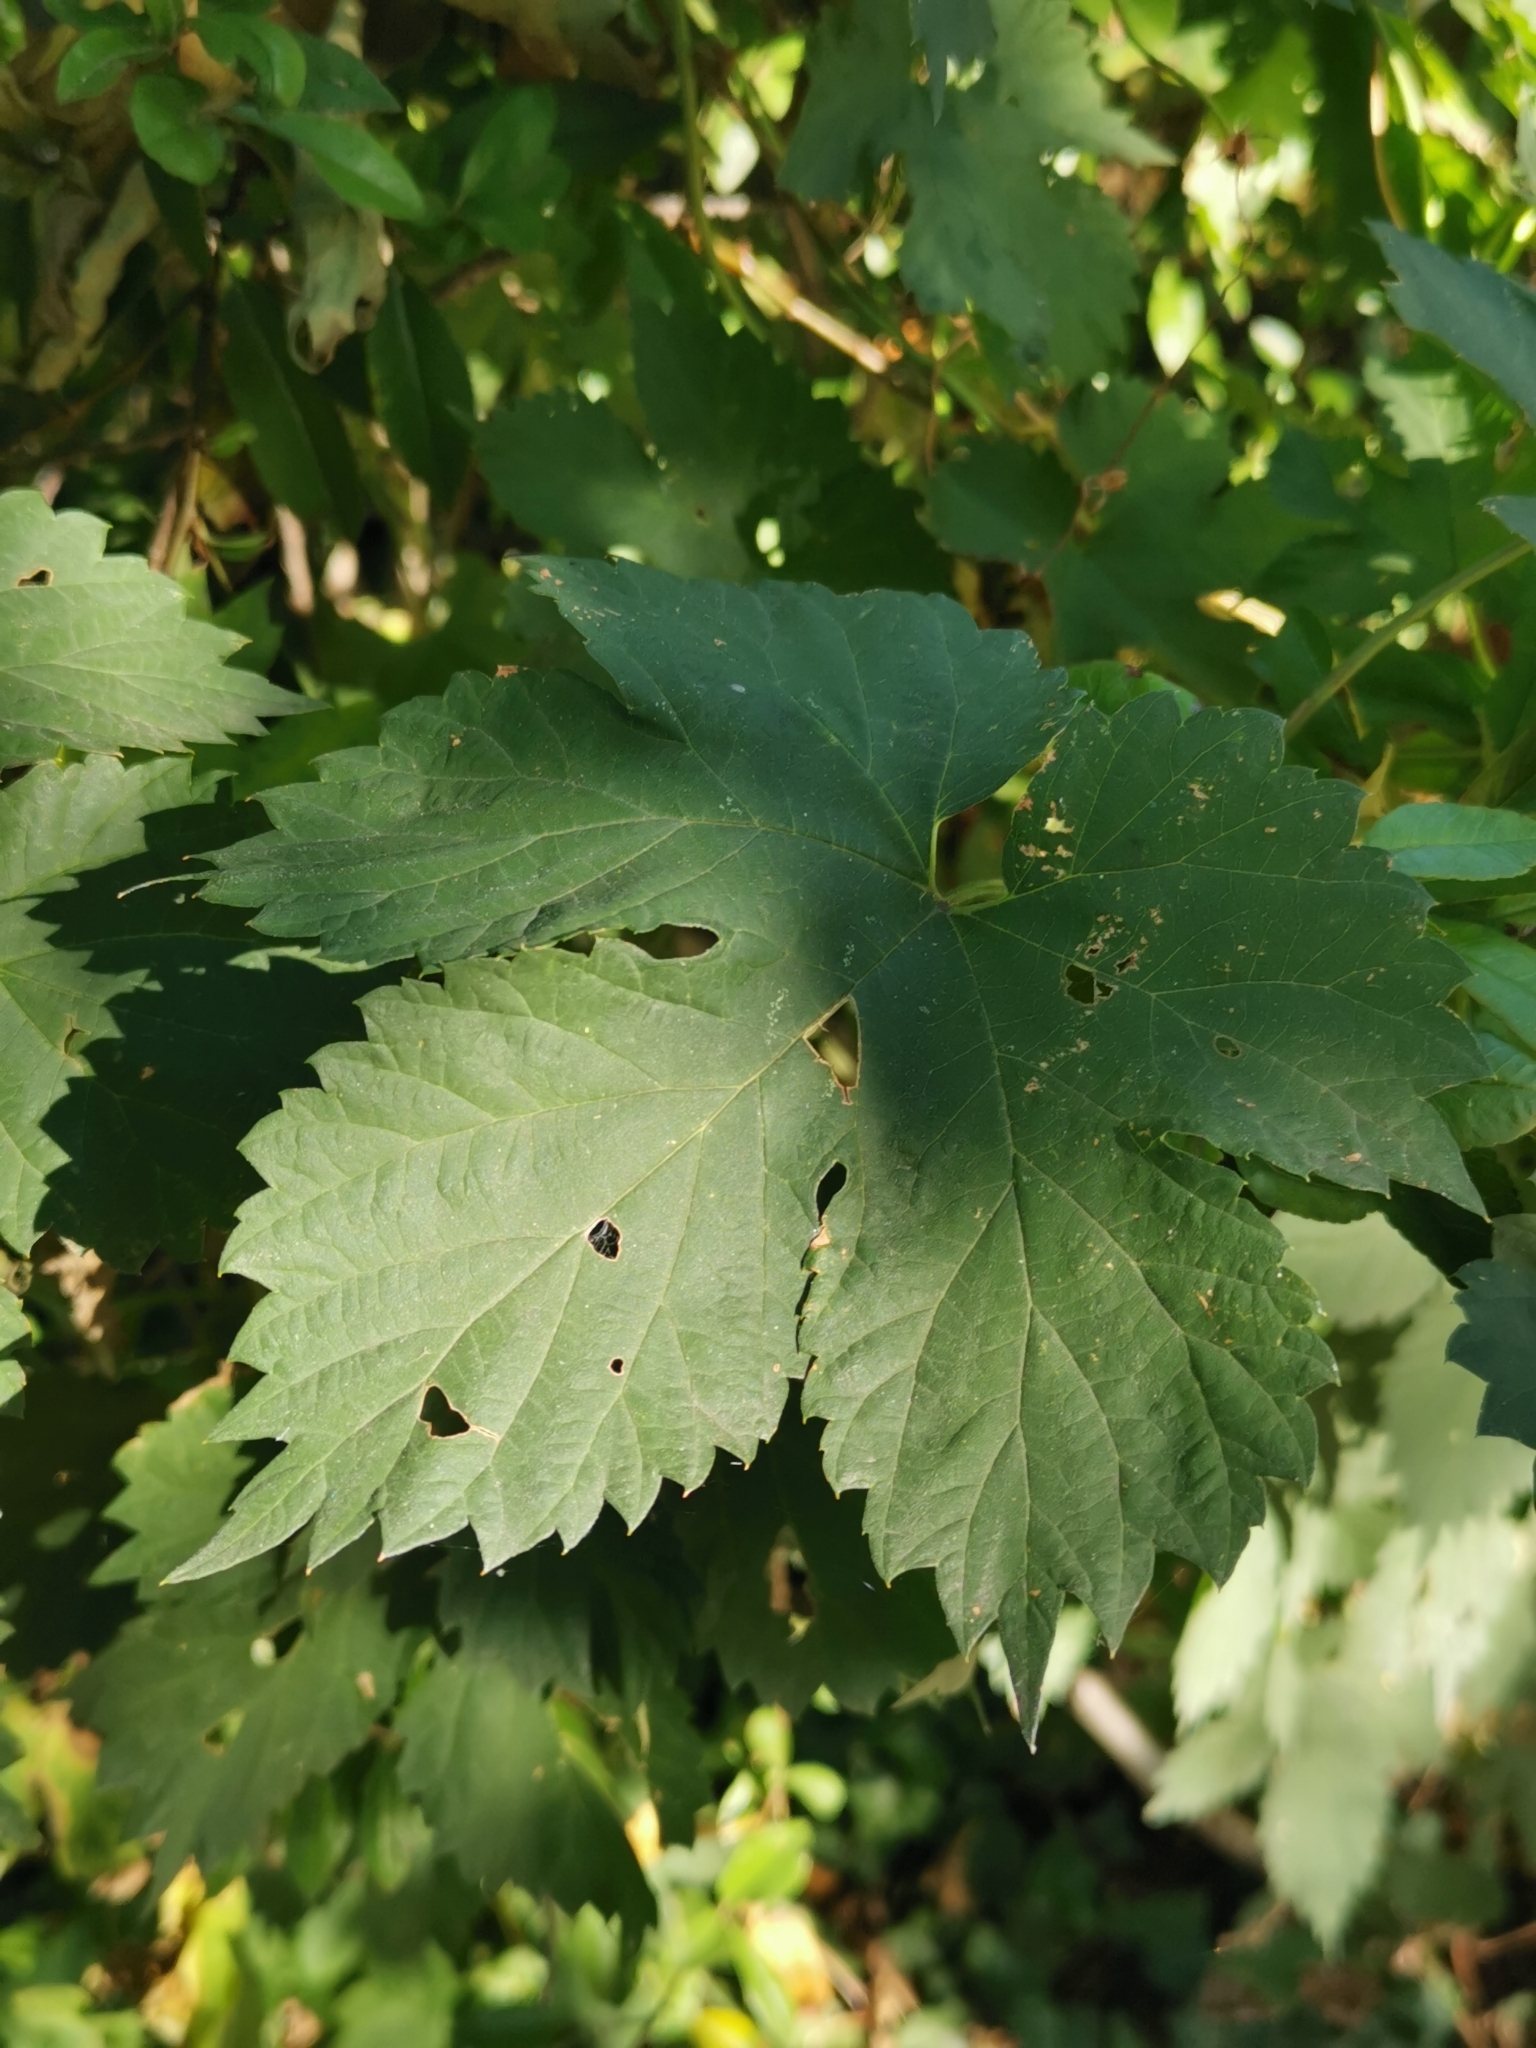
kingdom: Plantae
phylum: Tracheophyta
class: Magnoliopsida
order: Rosales
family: Cannabaceae
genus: Humulus
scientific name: Humulus lupulus
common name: Hop
